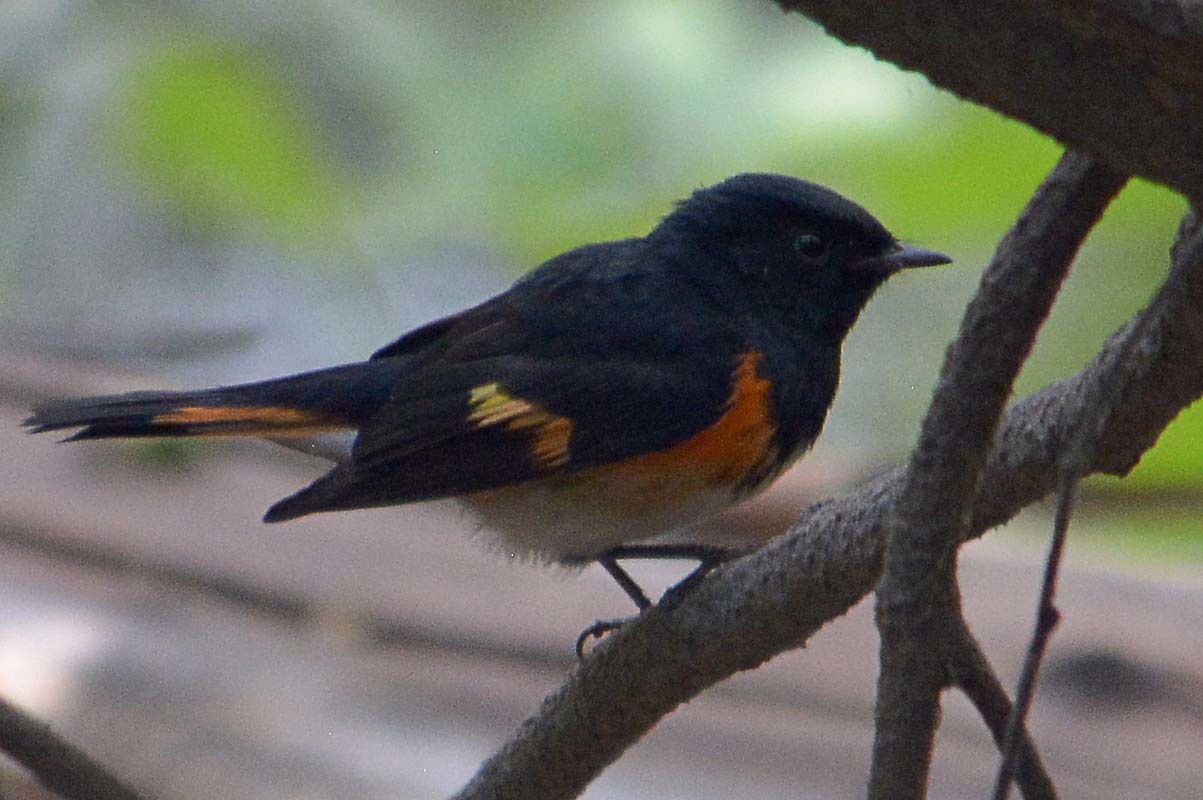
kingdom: Animalia
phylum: Chordata
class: Aves
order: Passeriformes
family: Parulidae
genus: Setophaga
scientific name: Setophaga ruticilla
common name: American redstart
